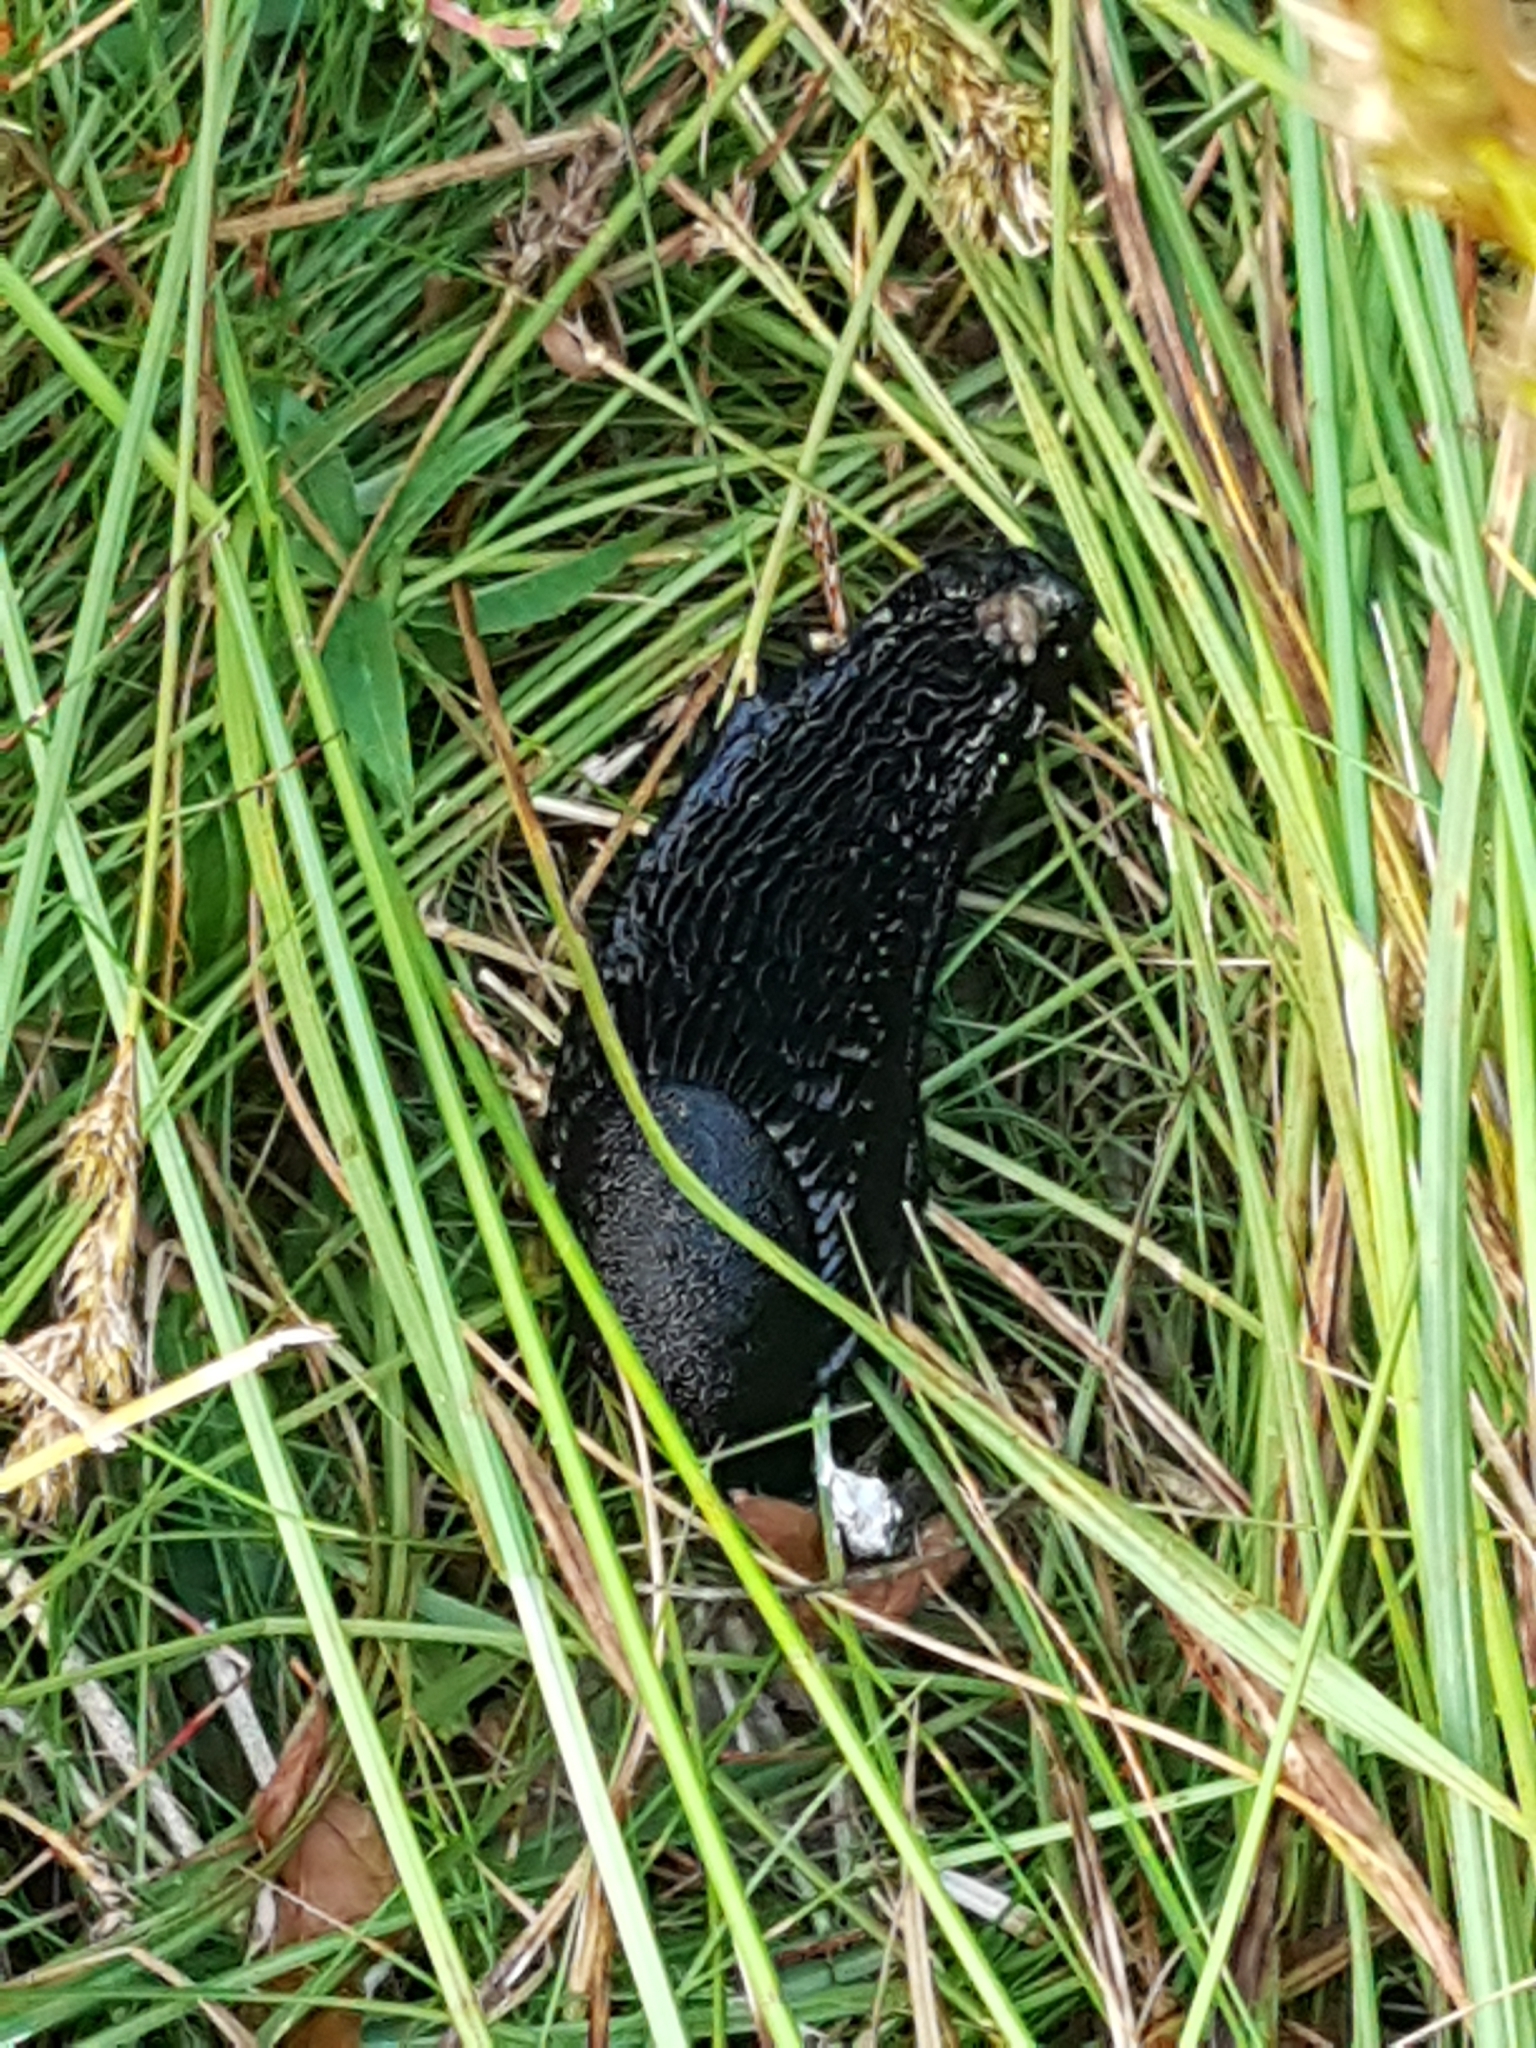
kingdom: Animalia
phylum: Mollusca
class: Gastropoda
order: Stylommatophora
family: Arionidae
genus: Arion
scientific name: Arion ater
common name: Black arion
